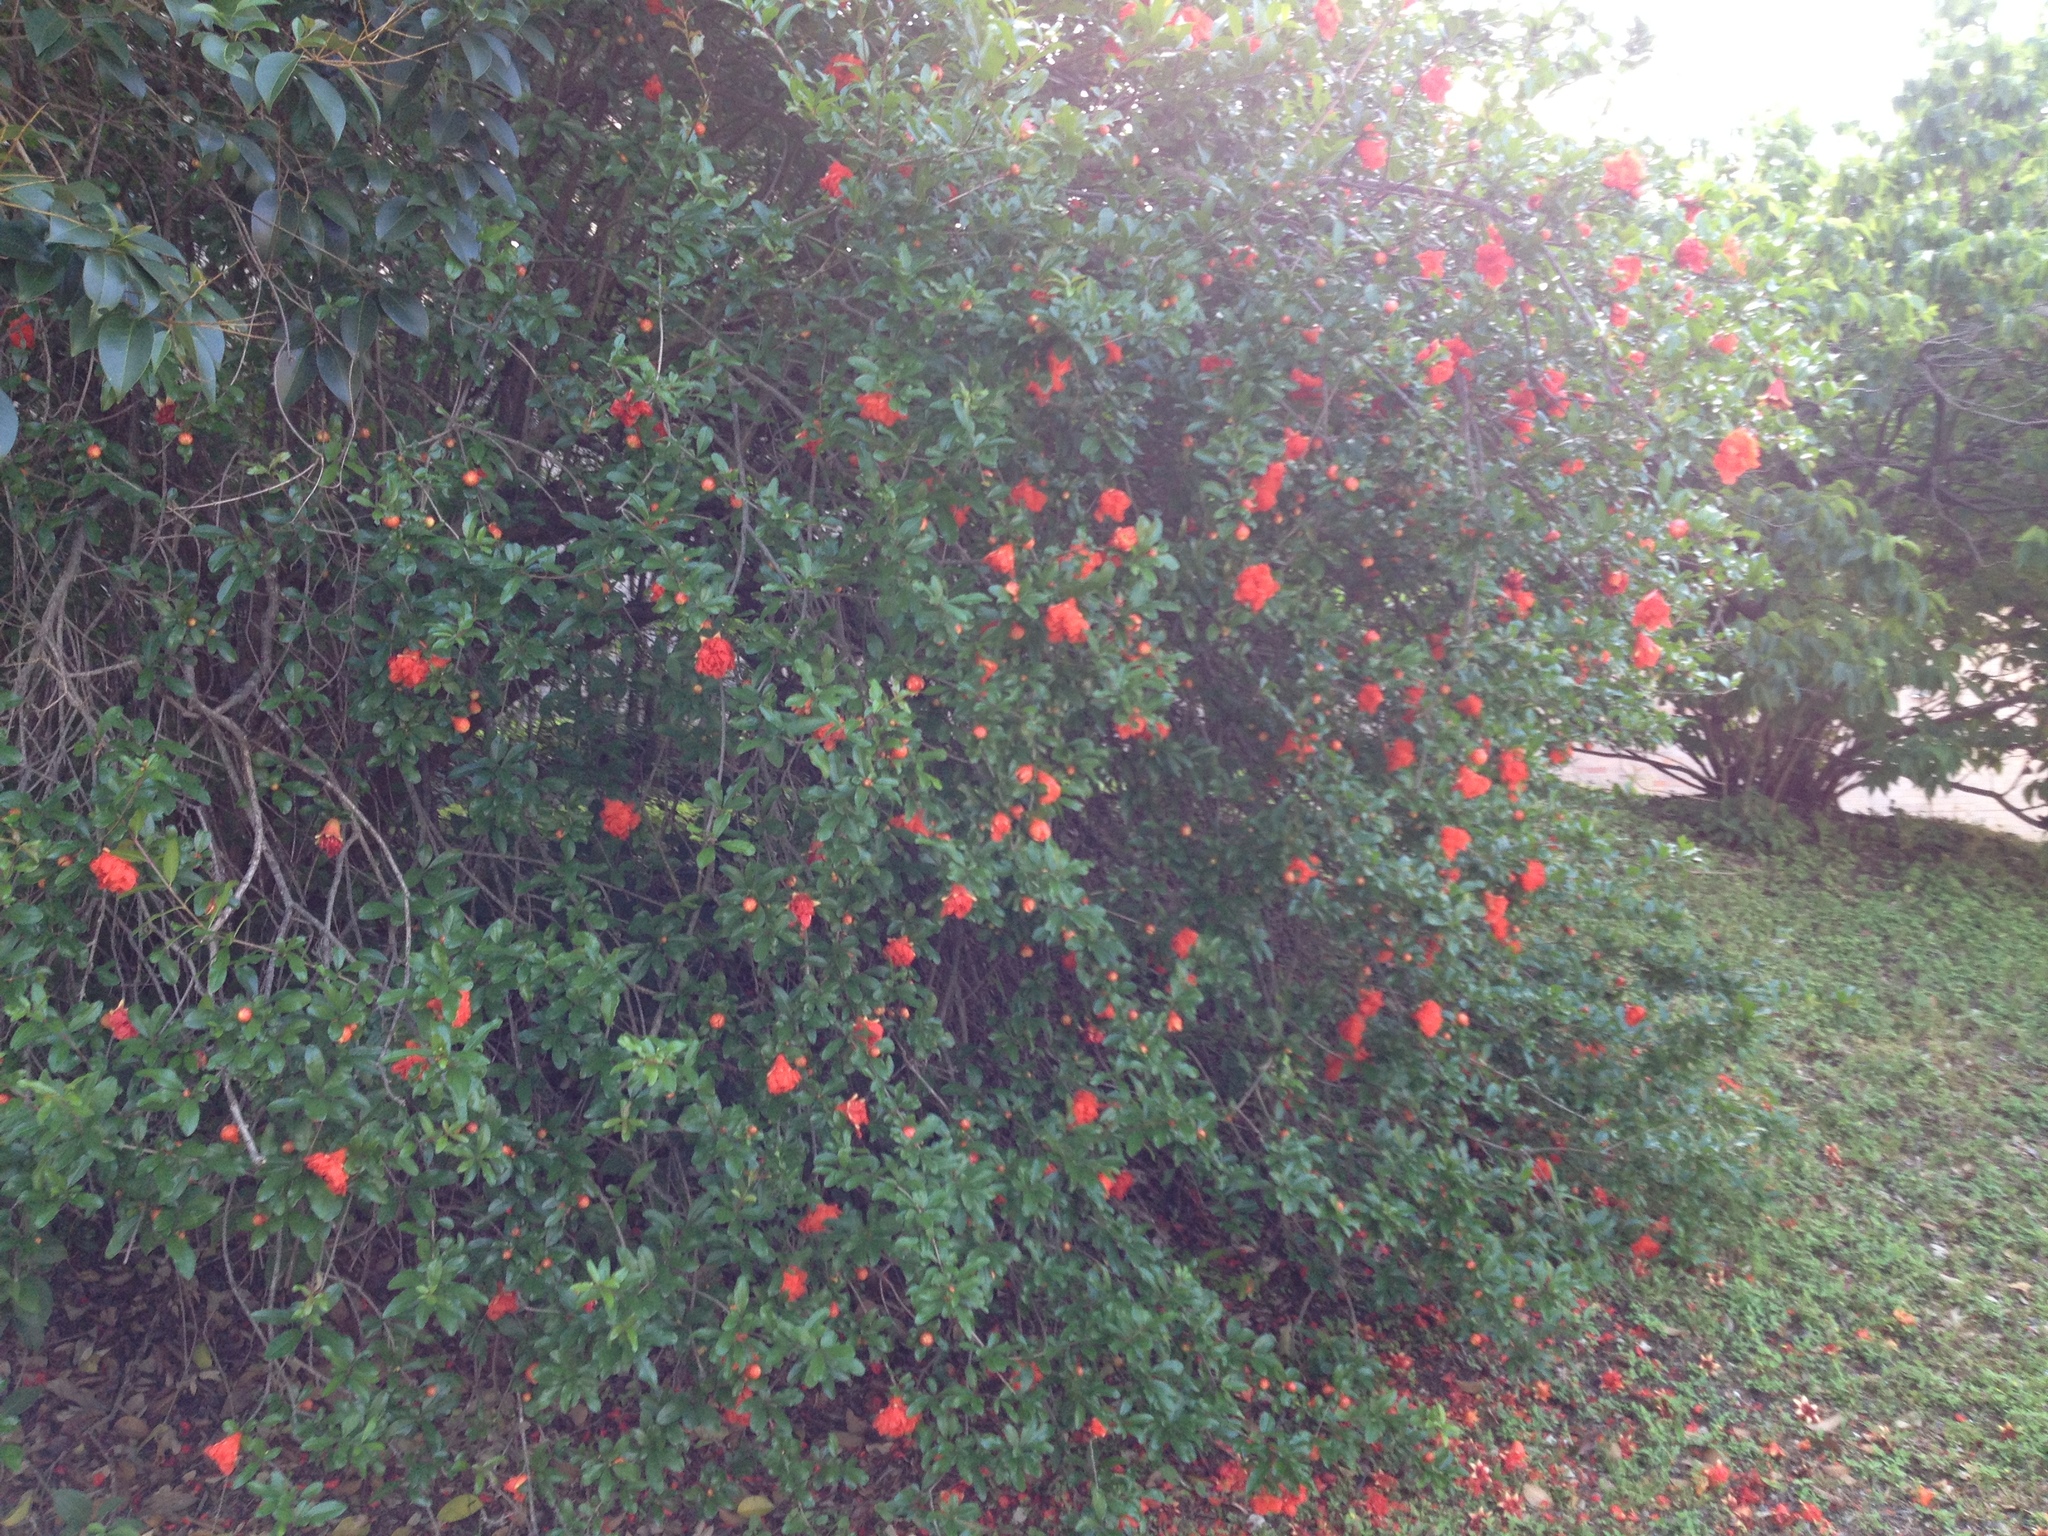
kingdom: Plantae
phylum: Tracheophyta
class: Magnoliopsida
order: Myrtales
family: Lythraceae
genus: Punica
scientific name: Punica granatum
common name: Pomegranate
